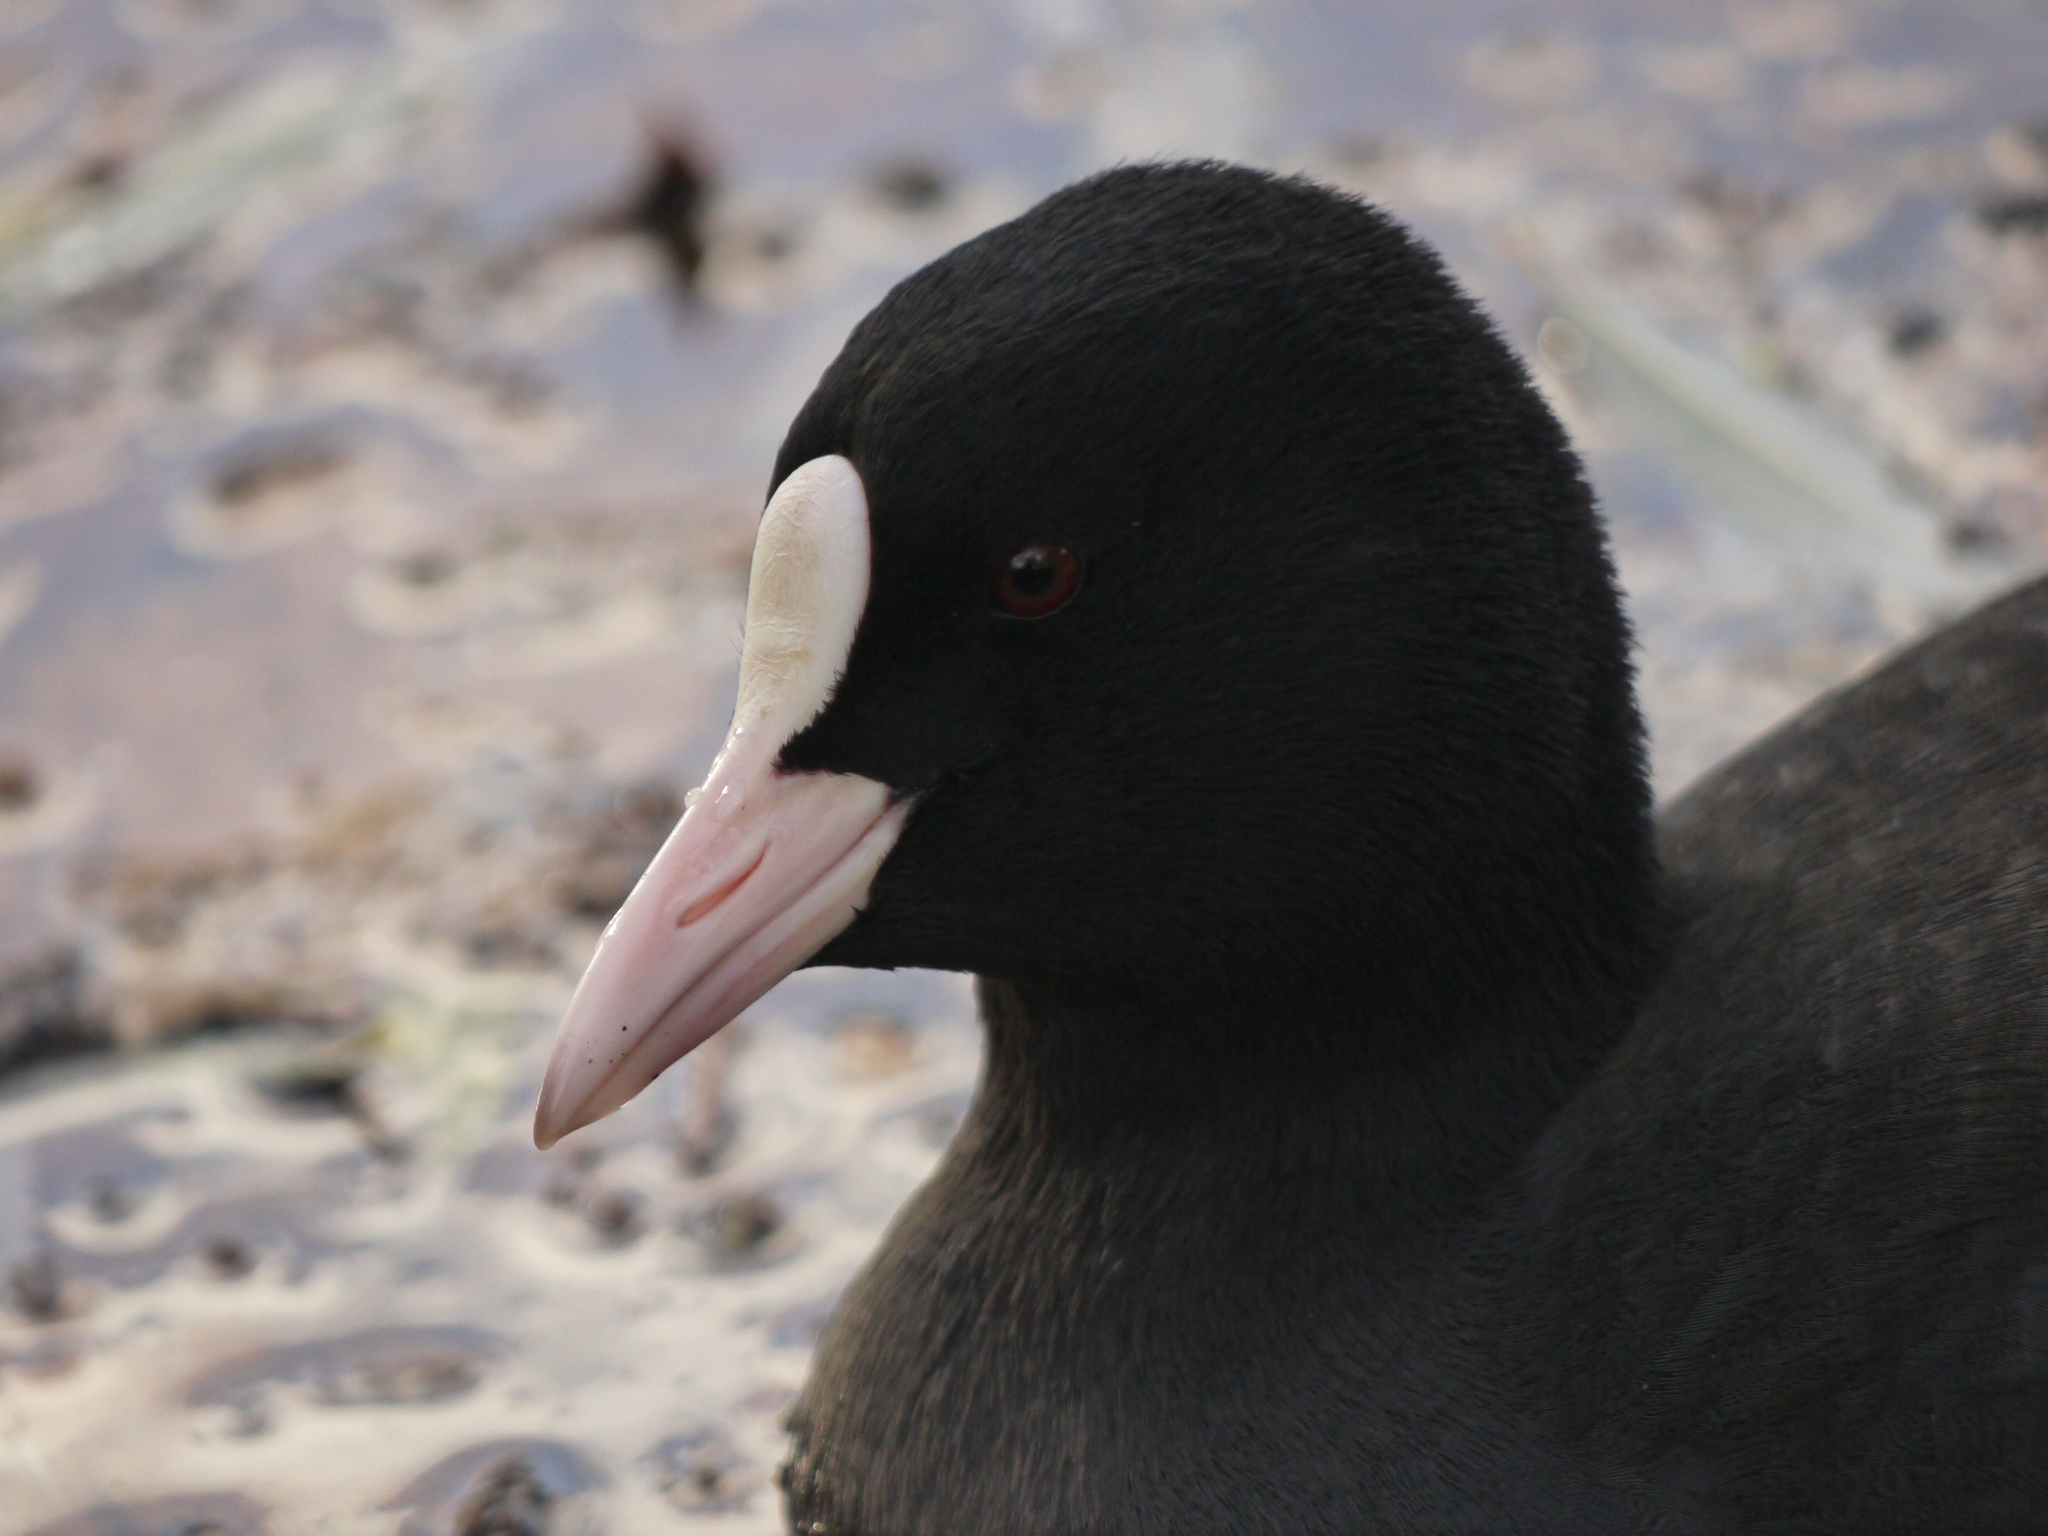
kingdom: Animalia
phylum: Chordata
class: Aves
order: Gruiformes
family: Rallidae
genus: Fulica
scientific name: Fulica atra
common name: Eurasian coot
